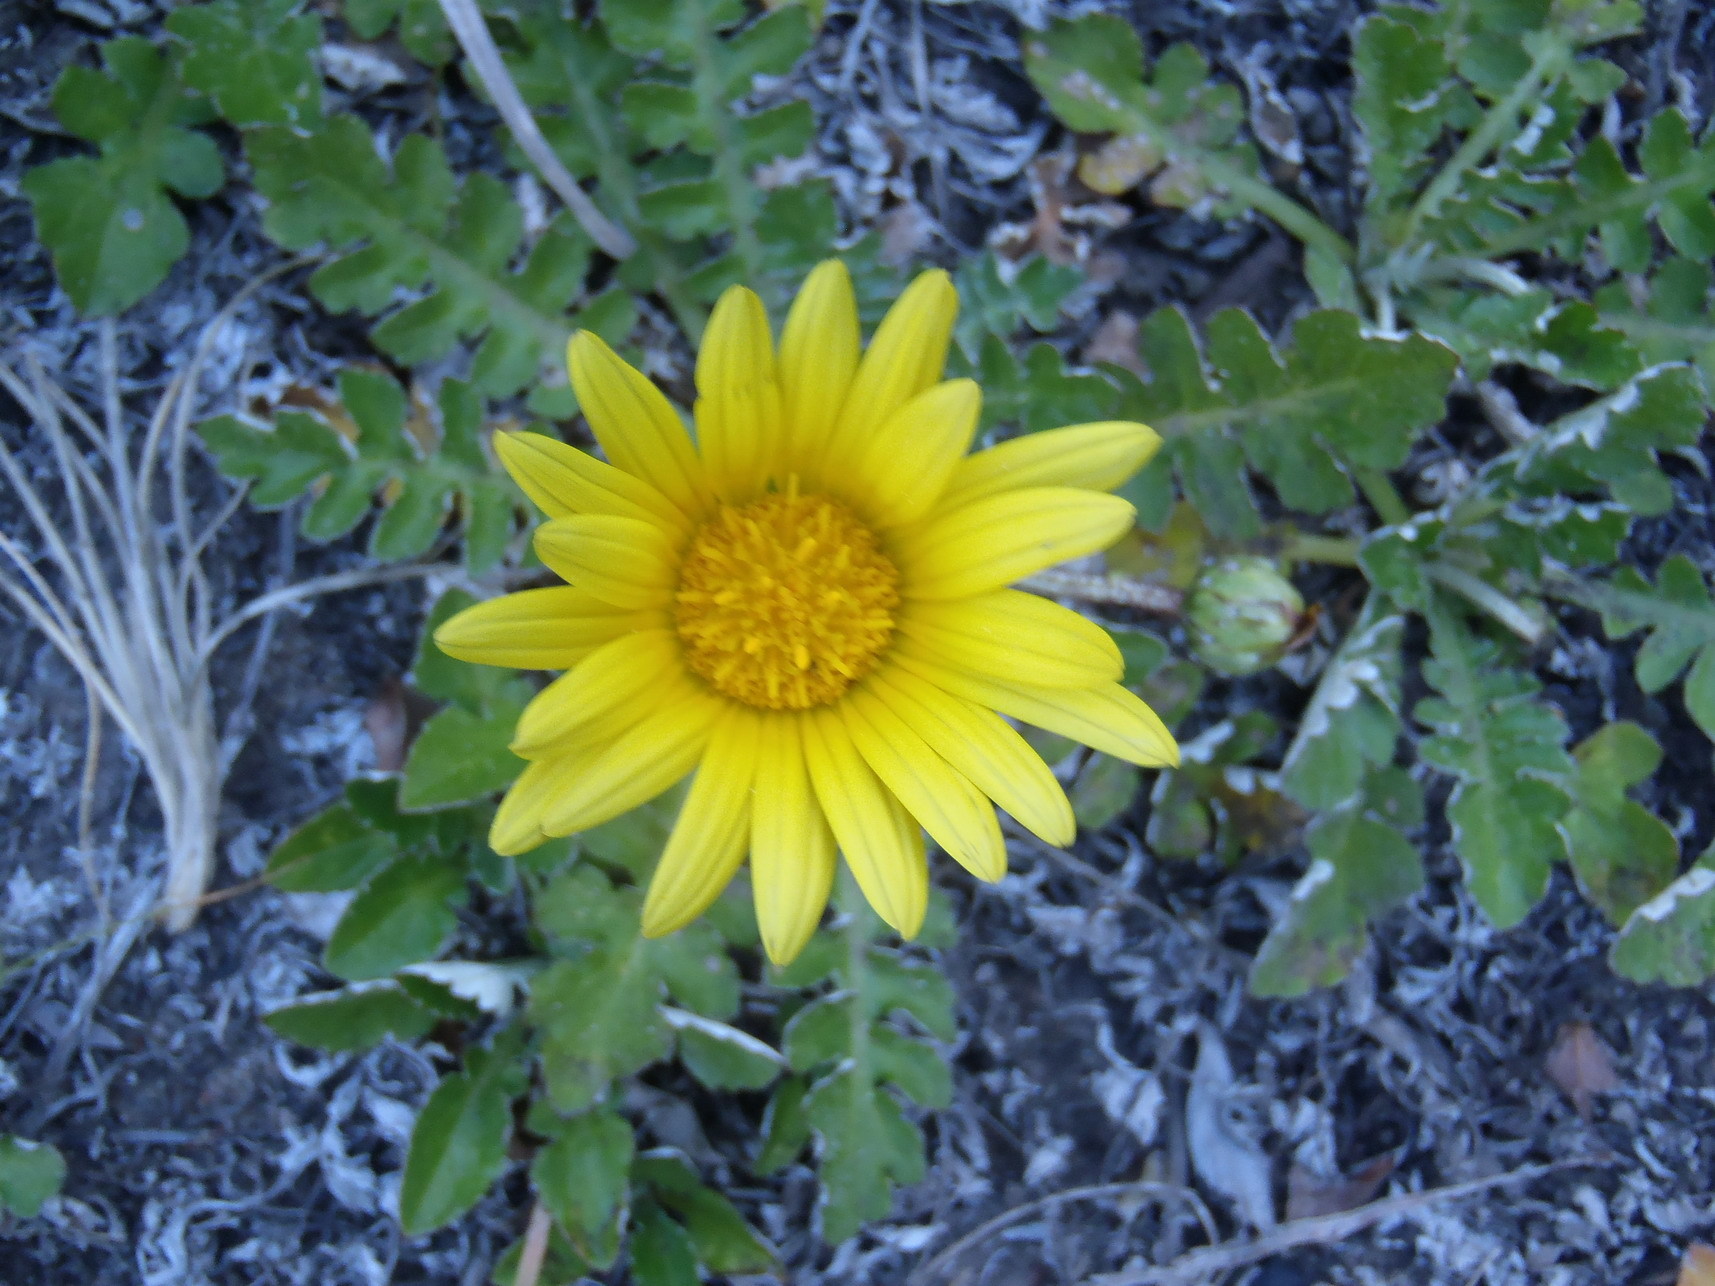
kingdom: Plantae
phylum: Tracheophyta
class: Magnoliopsida
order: Asterales
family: Asteraceae
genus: Arctotheca
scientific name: Arctotheca prostrata
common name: Capeweed
